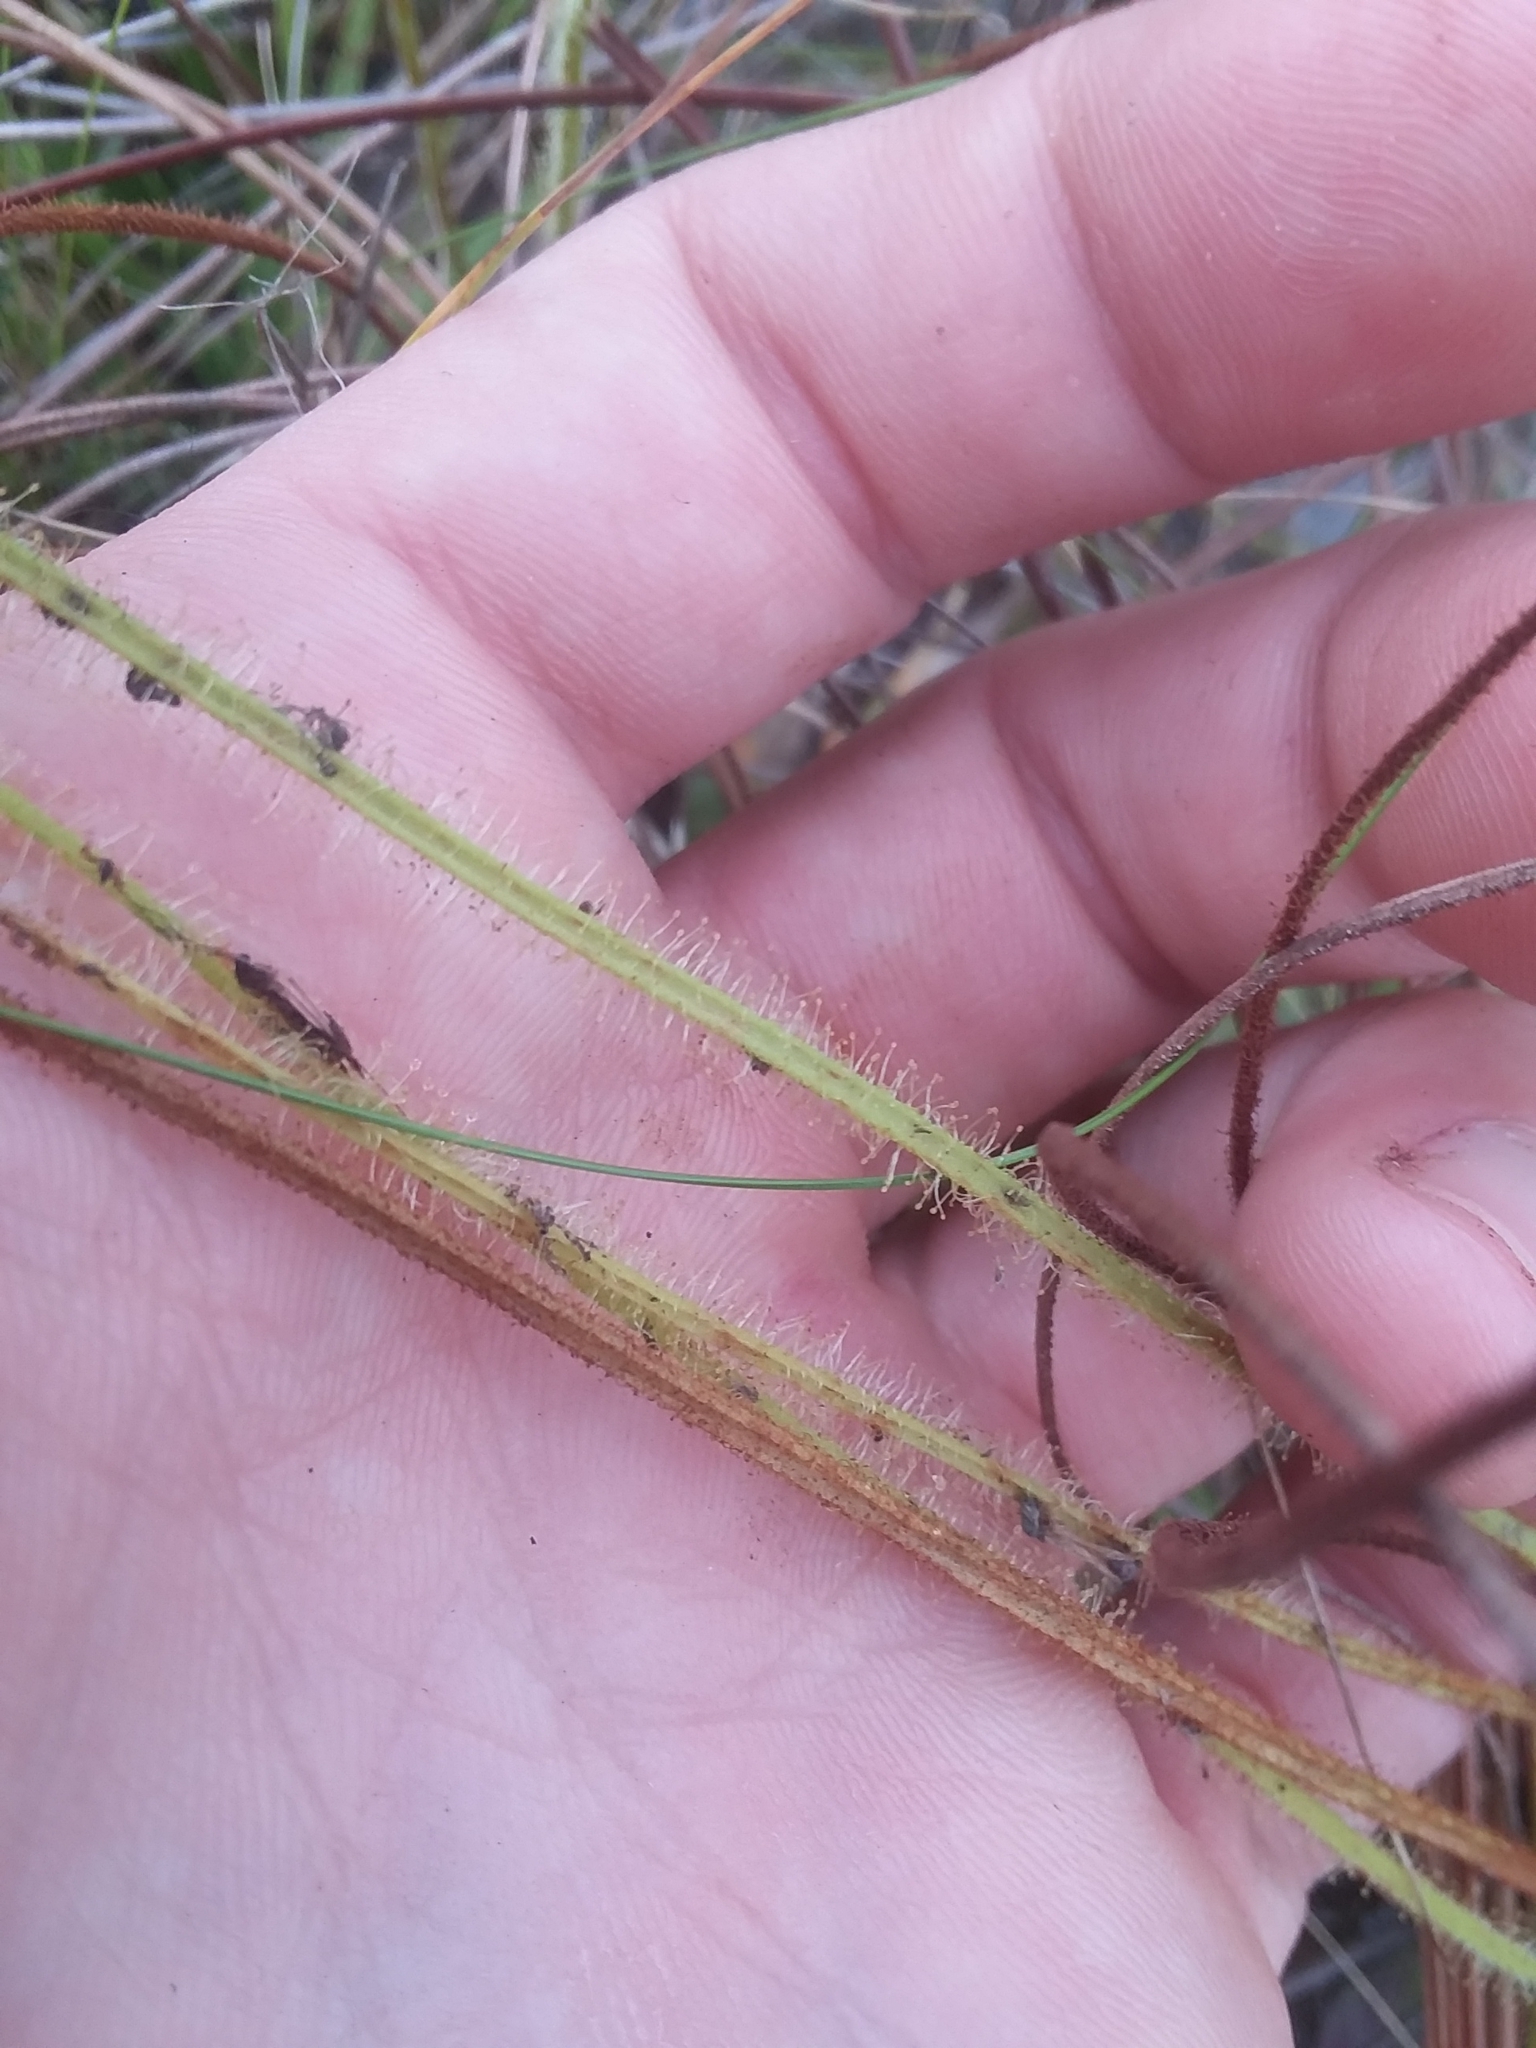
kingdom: Plantae
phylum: Tracheophyta
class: Magnoliopsida
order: Caryophyllales
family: Droseraceae
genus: Drosera
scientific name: Drosera filiformis
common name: Dew-thread
